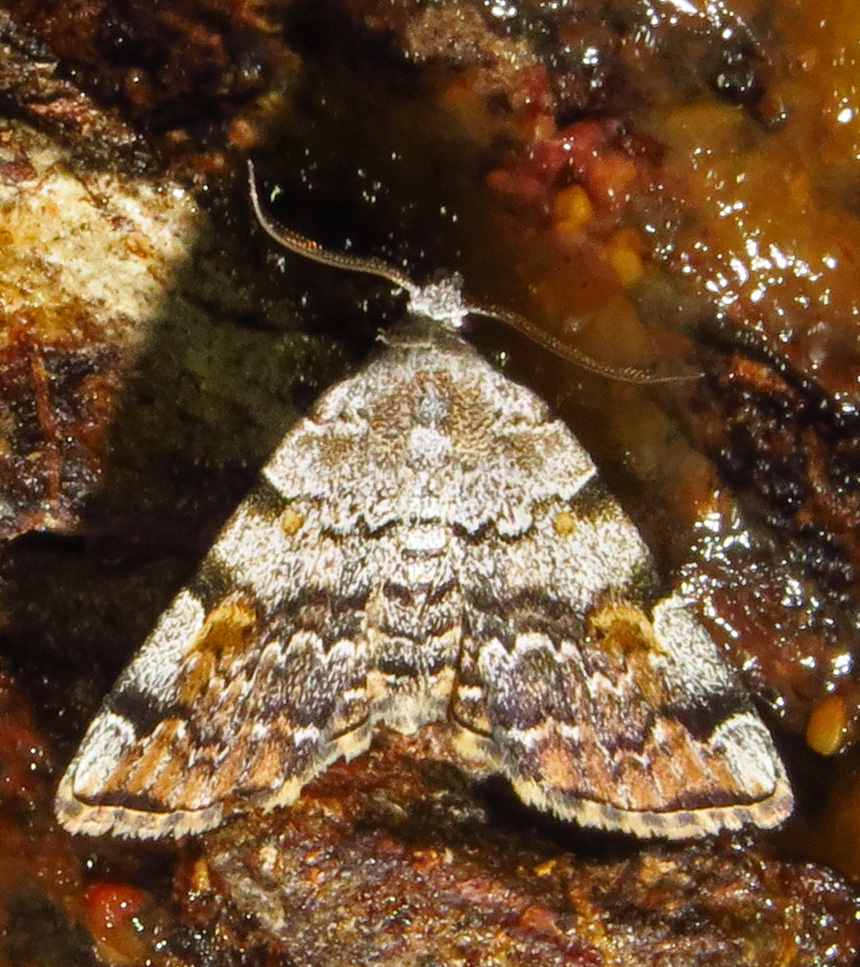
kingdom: Animalia
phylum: Arthropoda
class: Insecta
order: Lepidoptera
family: Erebidae
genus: Idia
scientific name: Idia americalis
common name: American idia moth
